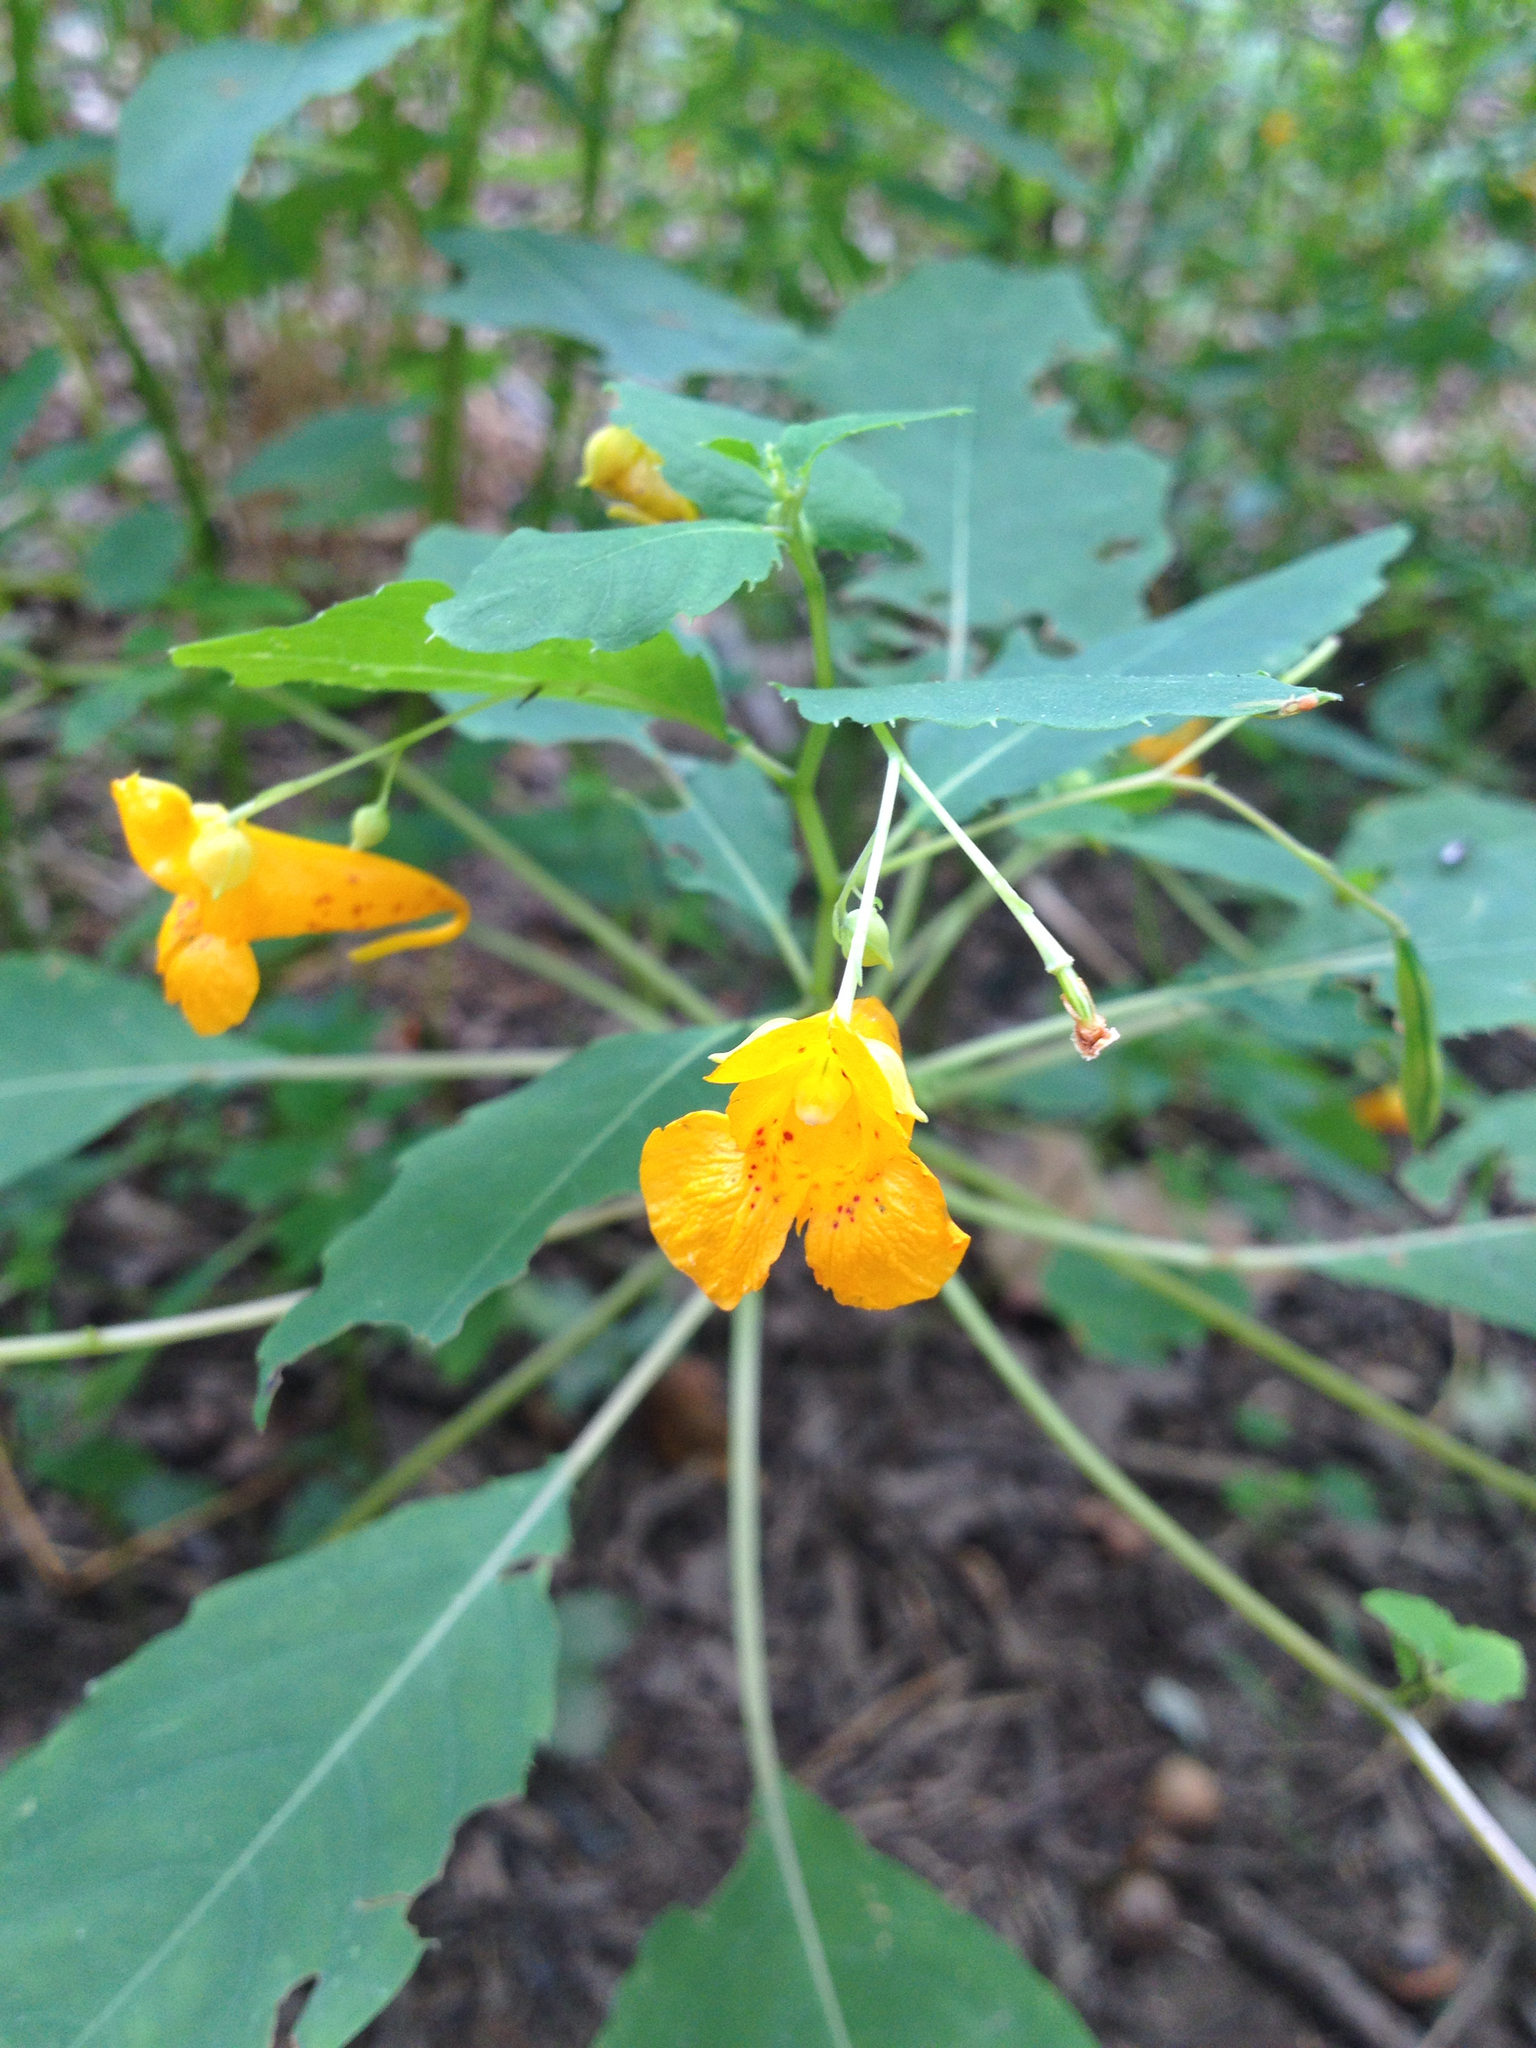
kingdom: Plantae
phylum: Tracheophyta
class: Magnoliopsida
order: Ericales
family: Balsaminaceae
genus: Impatiens
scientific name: Impatiens capensis
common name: Orange balsam
